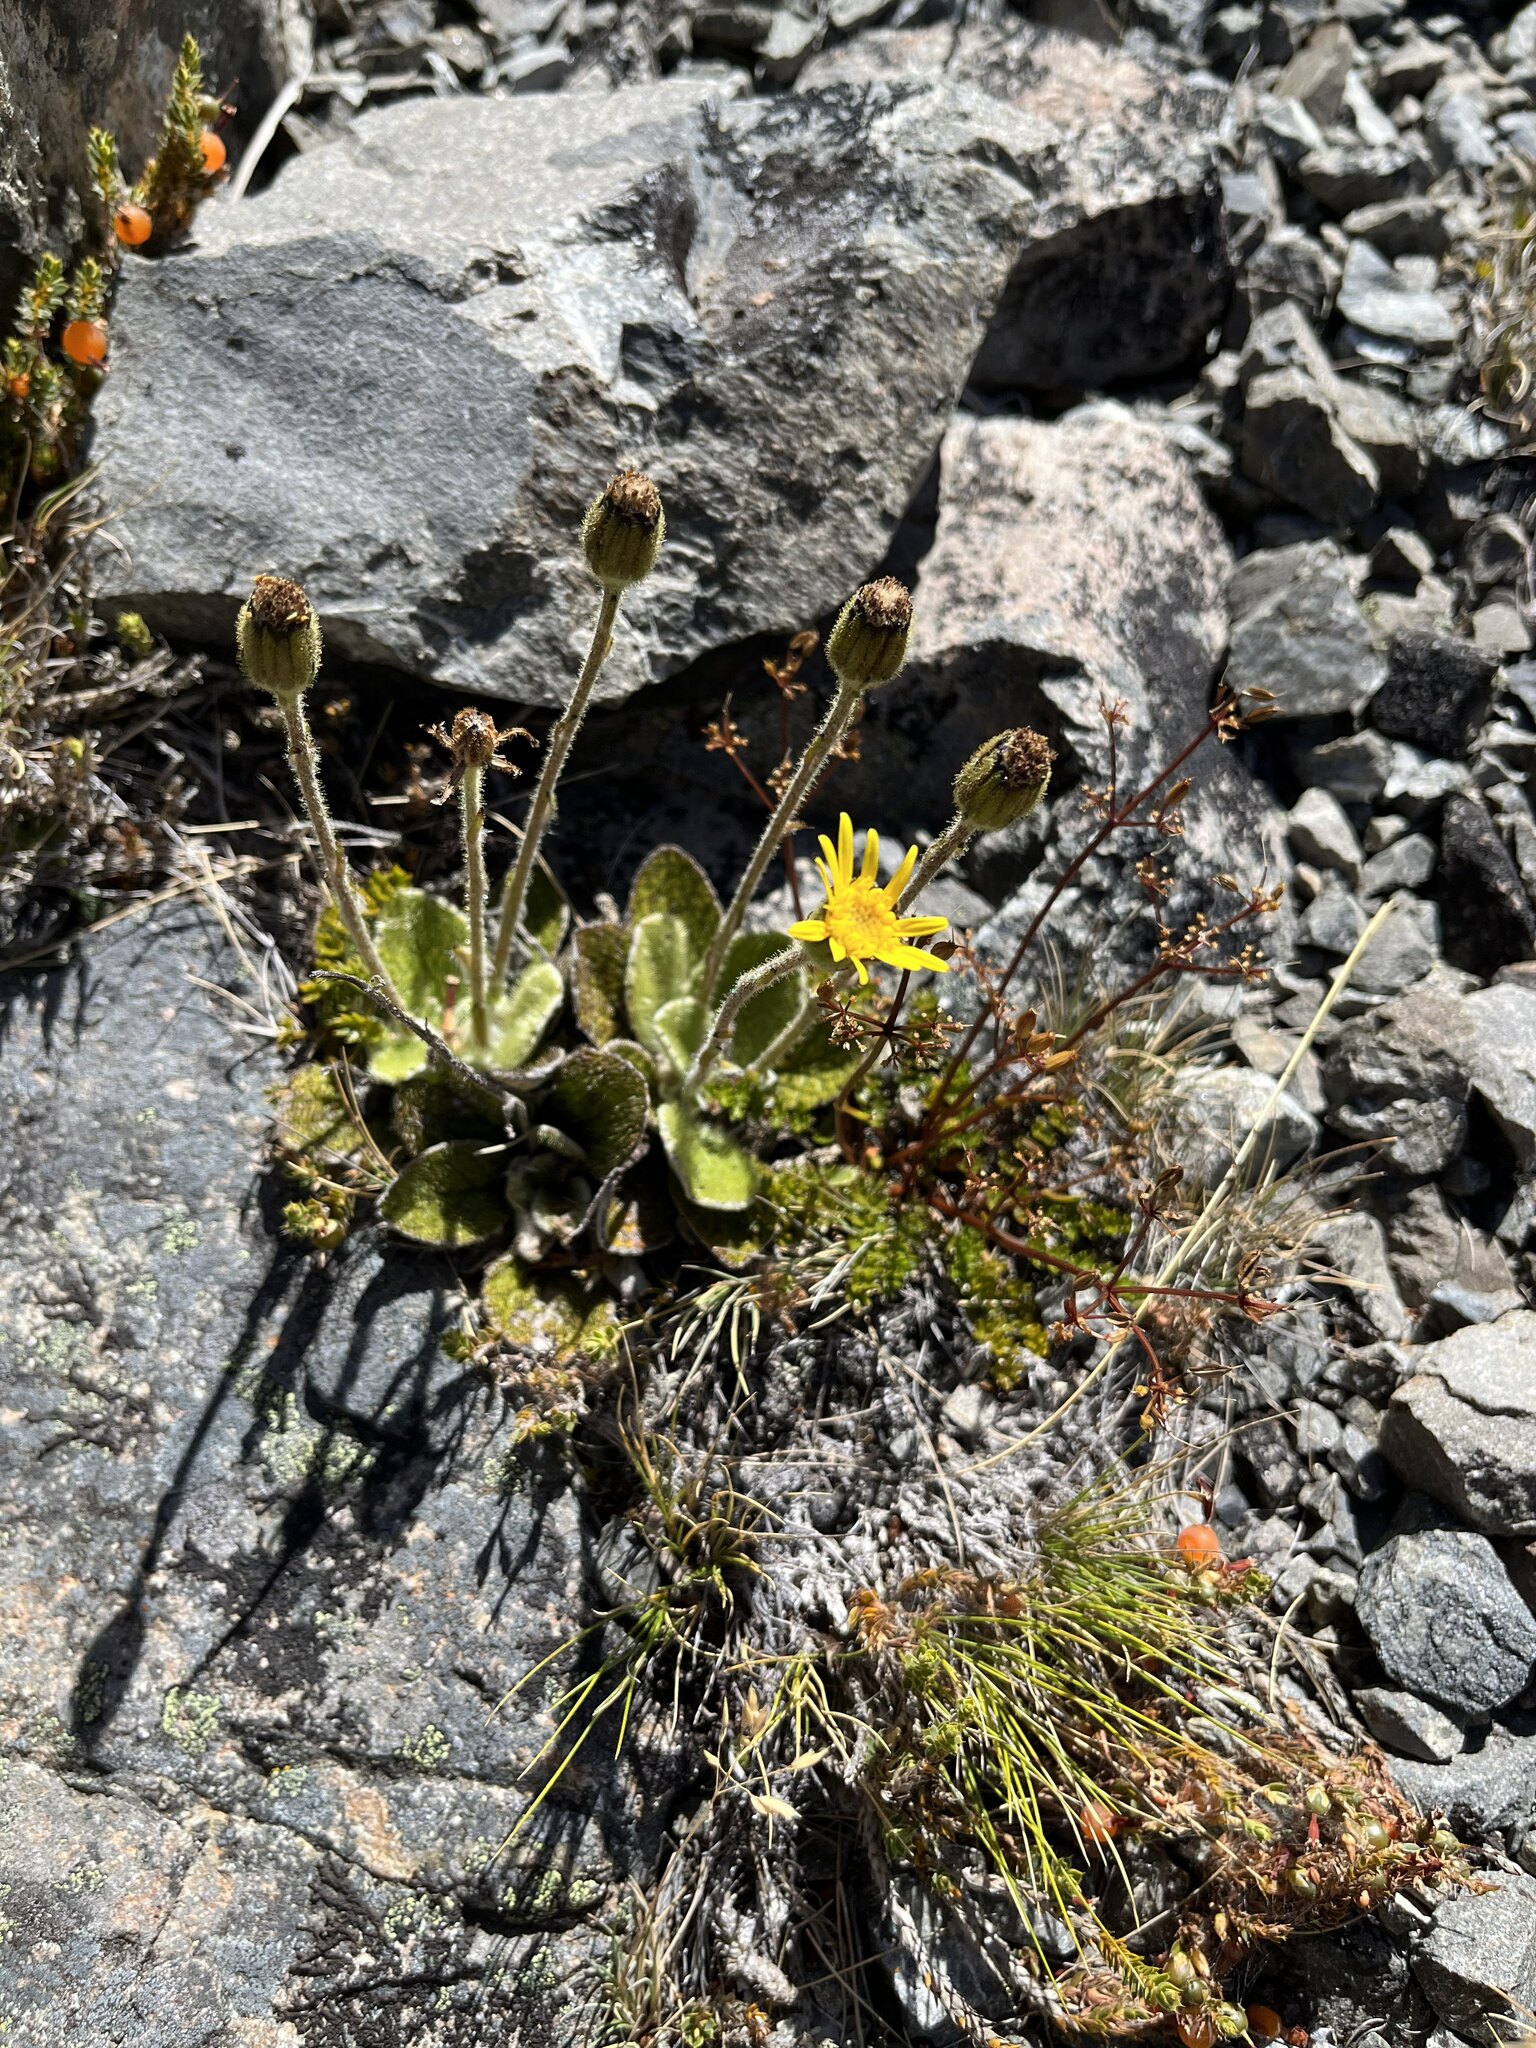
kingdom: Plantae
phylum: Tracheophyta
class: Magnoliopsida
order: Asterales
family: Asteraceae
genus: Brachyglottis
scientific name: Brachyglottis lagopus
